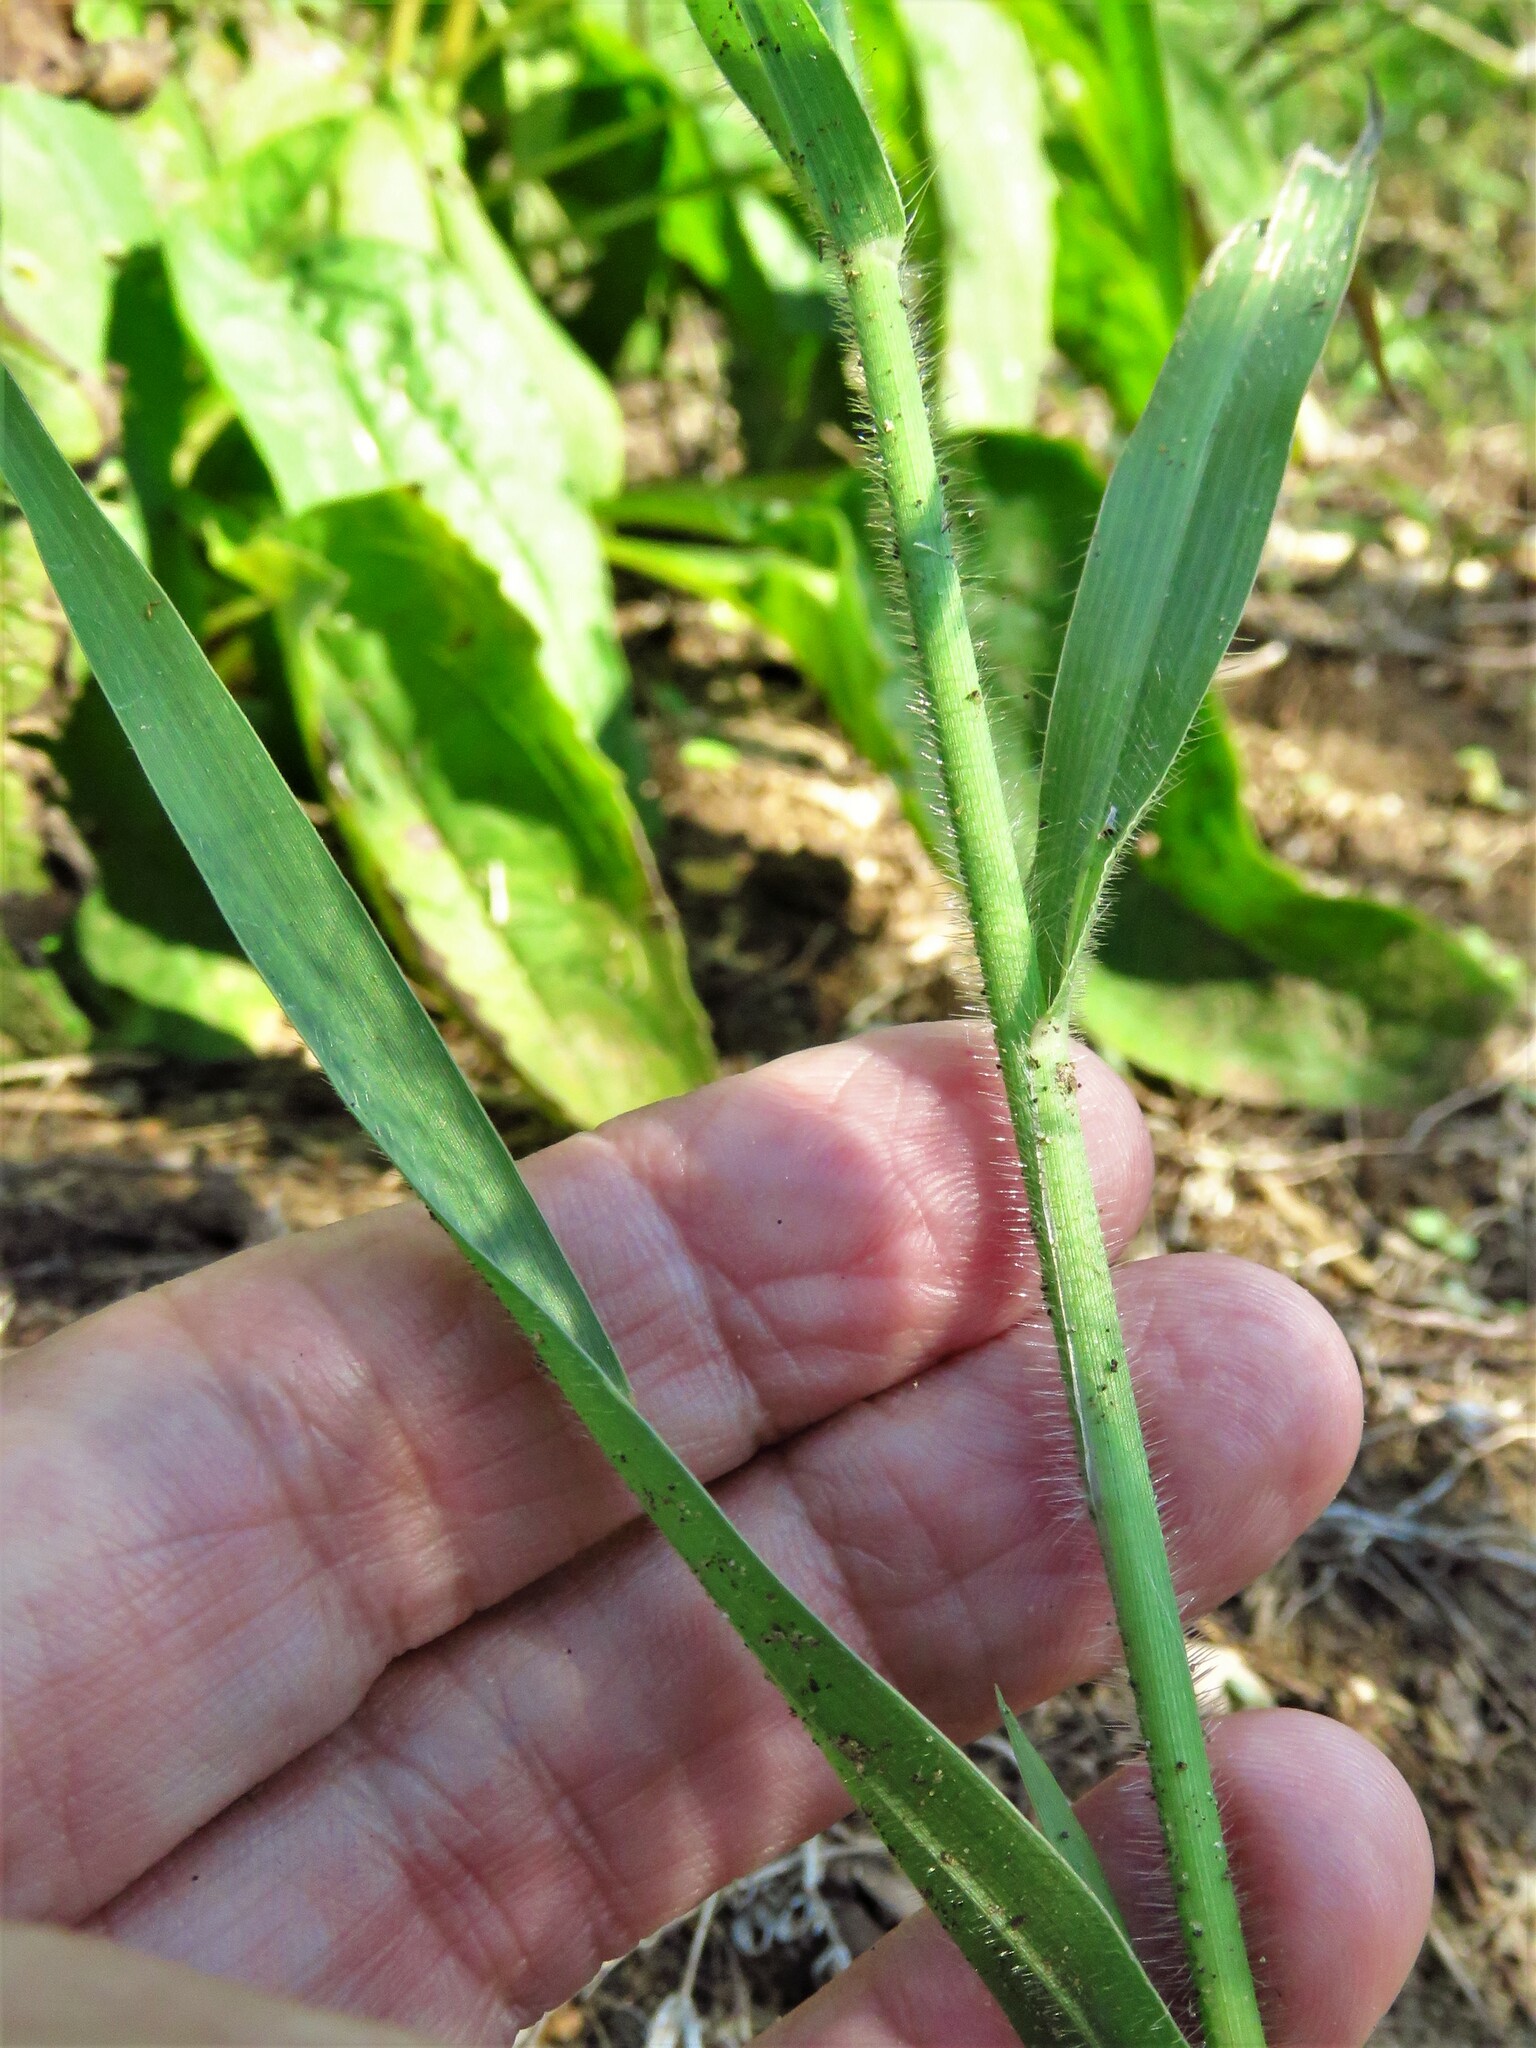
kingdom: Plantae
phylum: Tracheophyta
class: Liliopsida
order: Poales
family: Poaceae
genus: Panicum
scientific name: Panicum capillare
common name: Witch-grass
